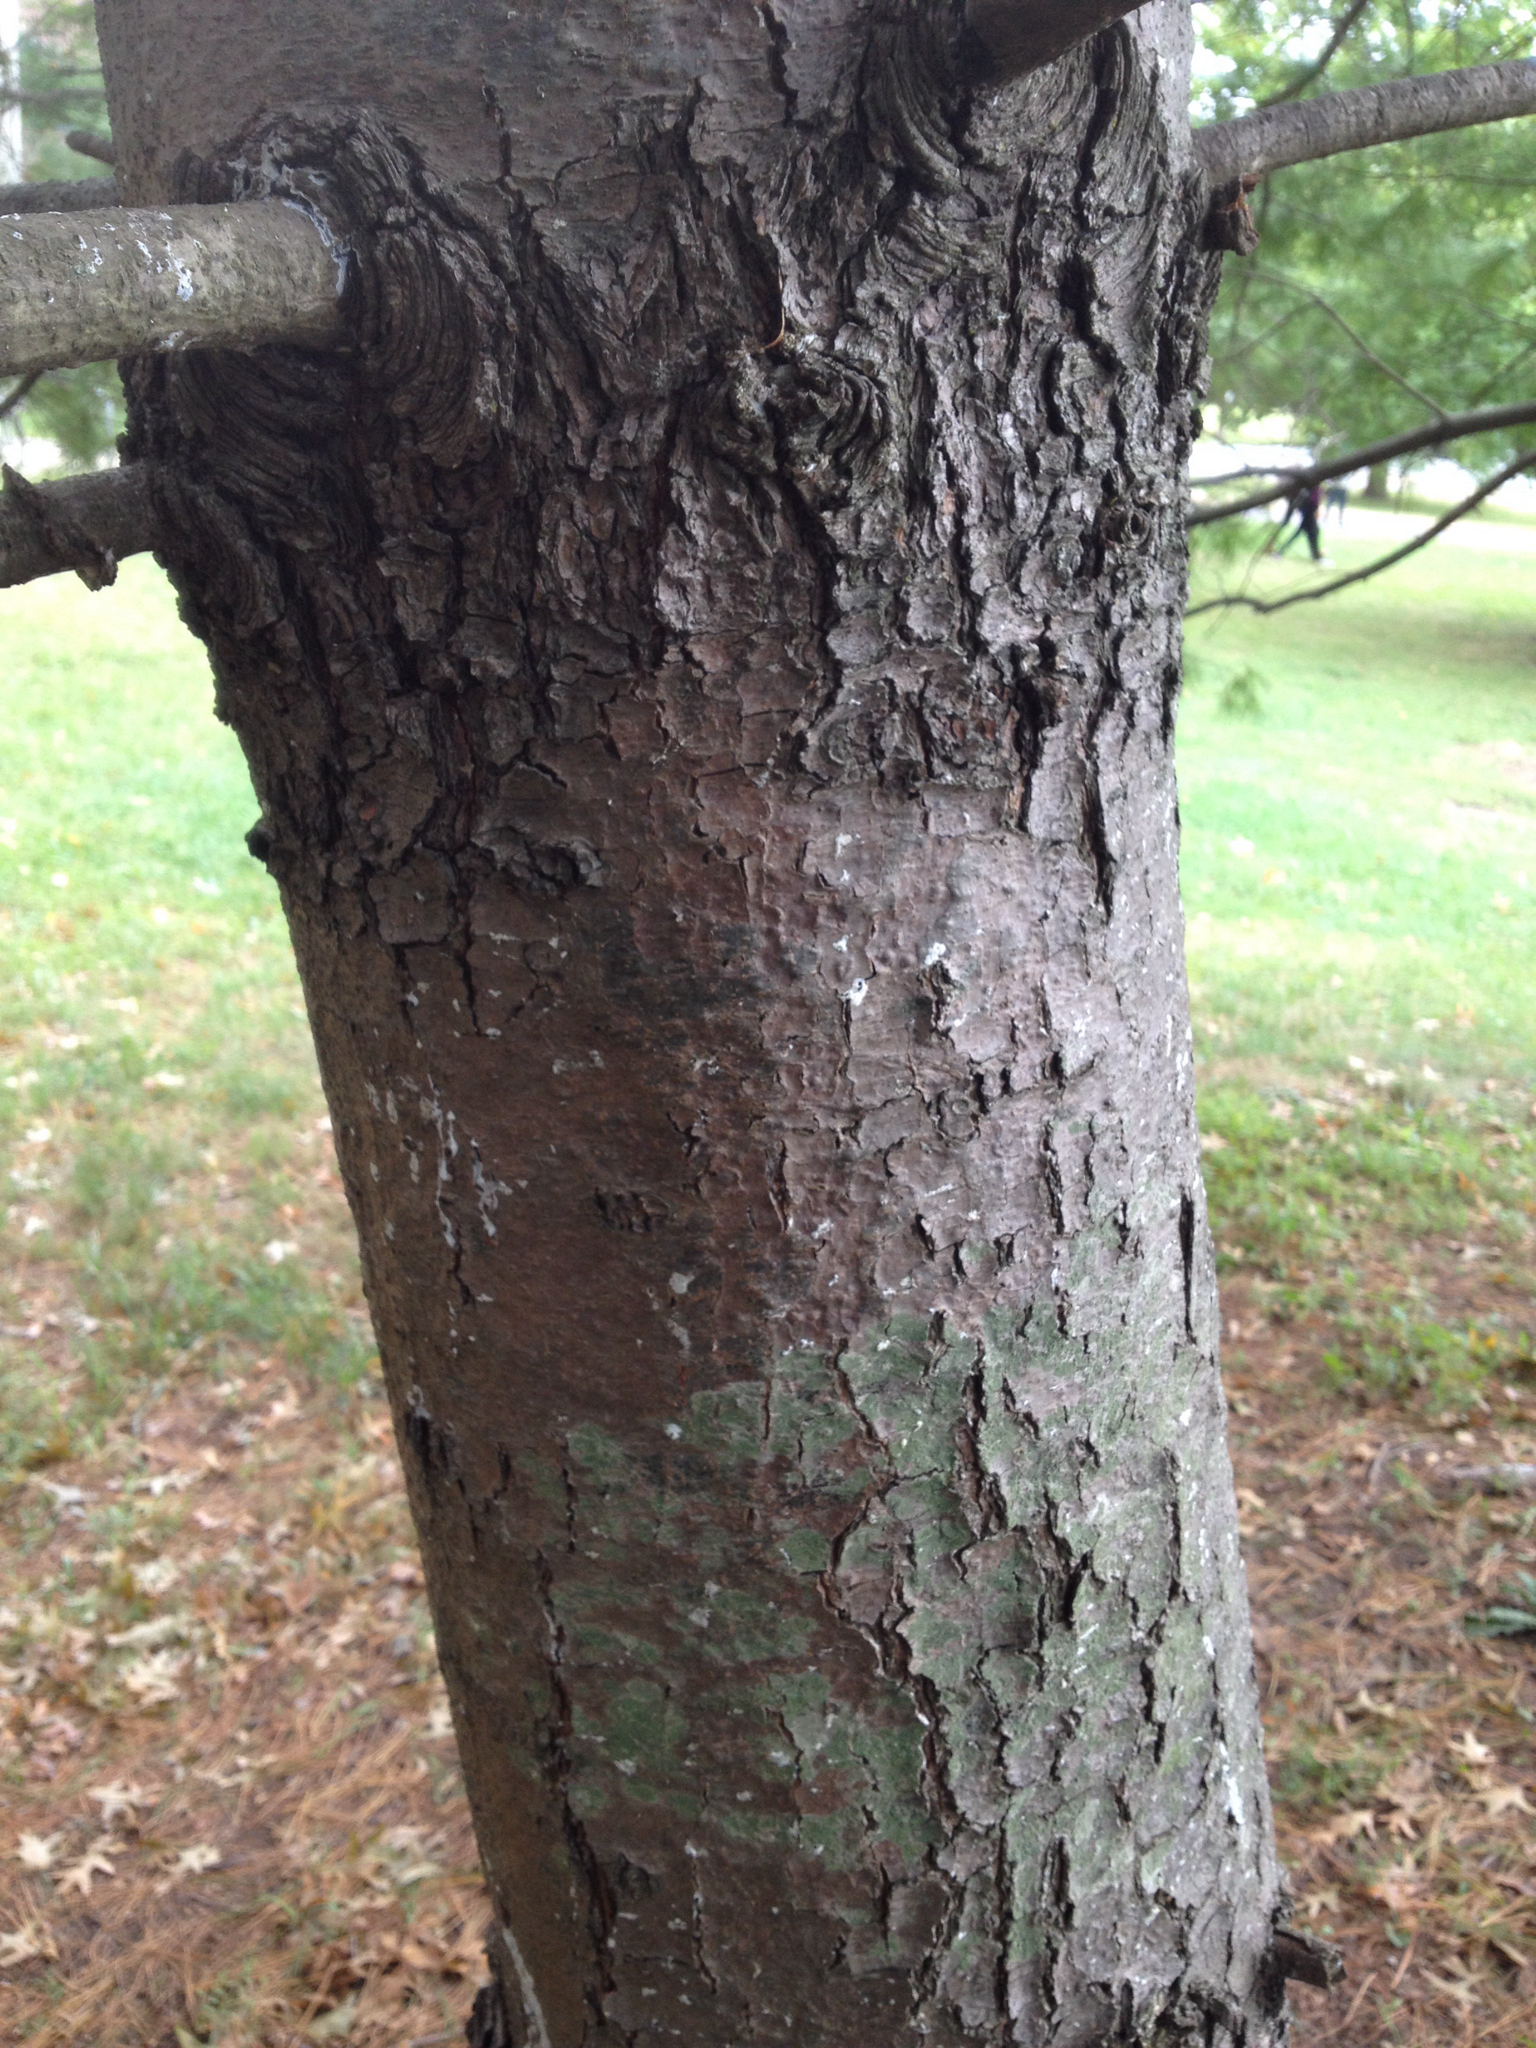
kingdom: Plantae
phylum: Tracheophyta
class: Pinopsida
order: Pinales
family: Pinaceae
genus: Pinus
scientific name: Pinus strobus
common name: Weymouth pine
